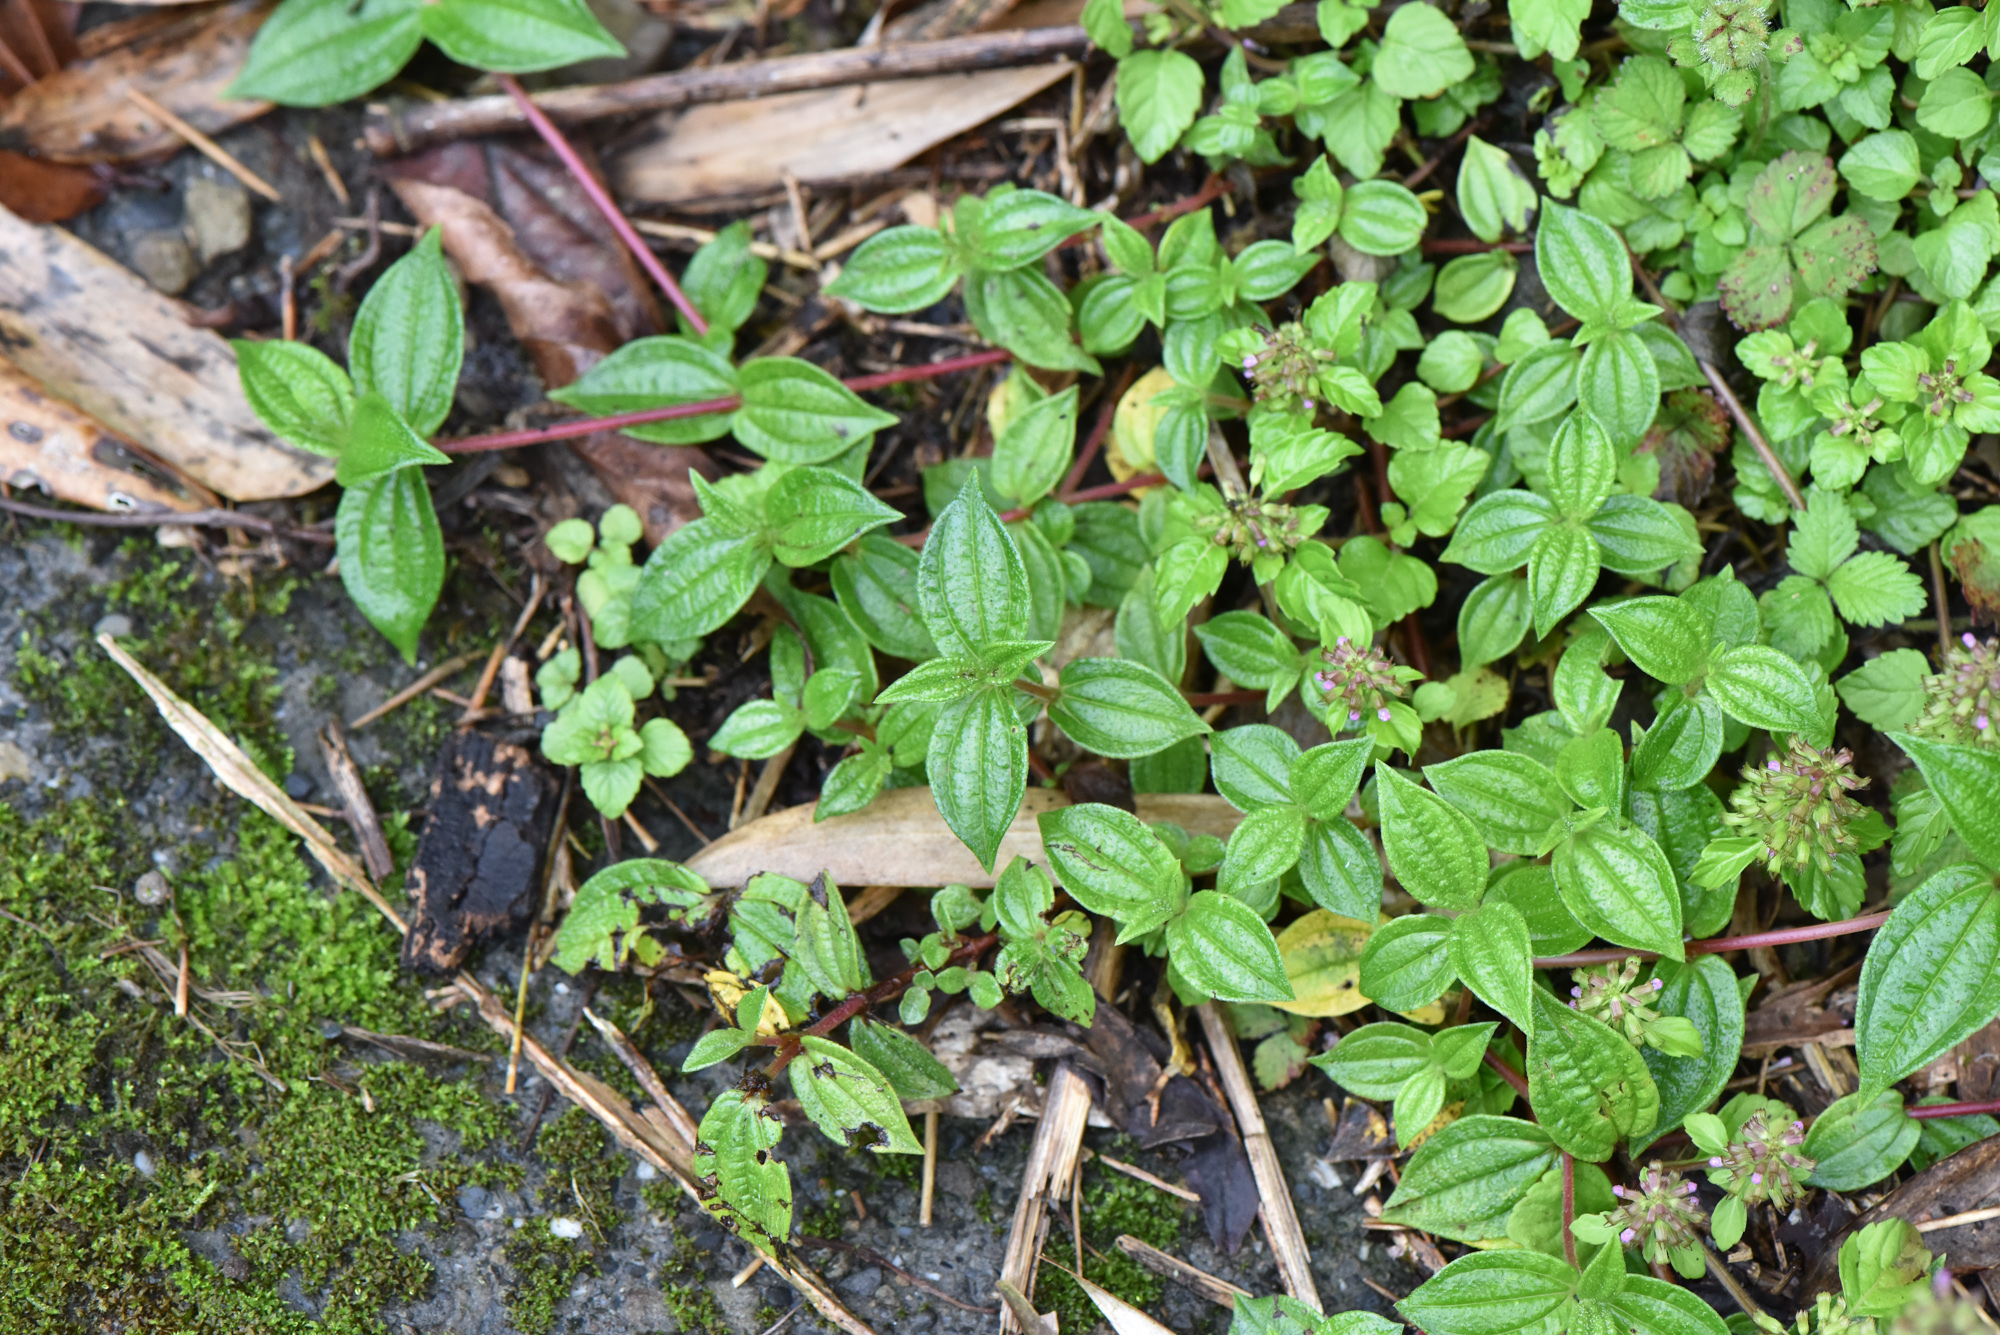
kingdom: Plantae
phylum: Tracheophyta
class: Magnoliopsida
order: Rosales
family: Urticaceae
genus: Gonostegia
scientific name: Gonostegia triandra
